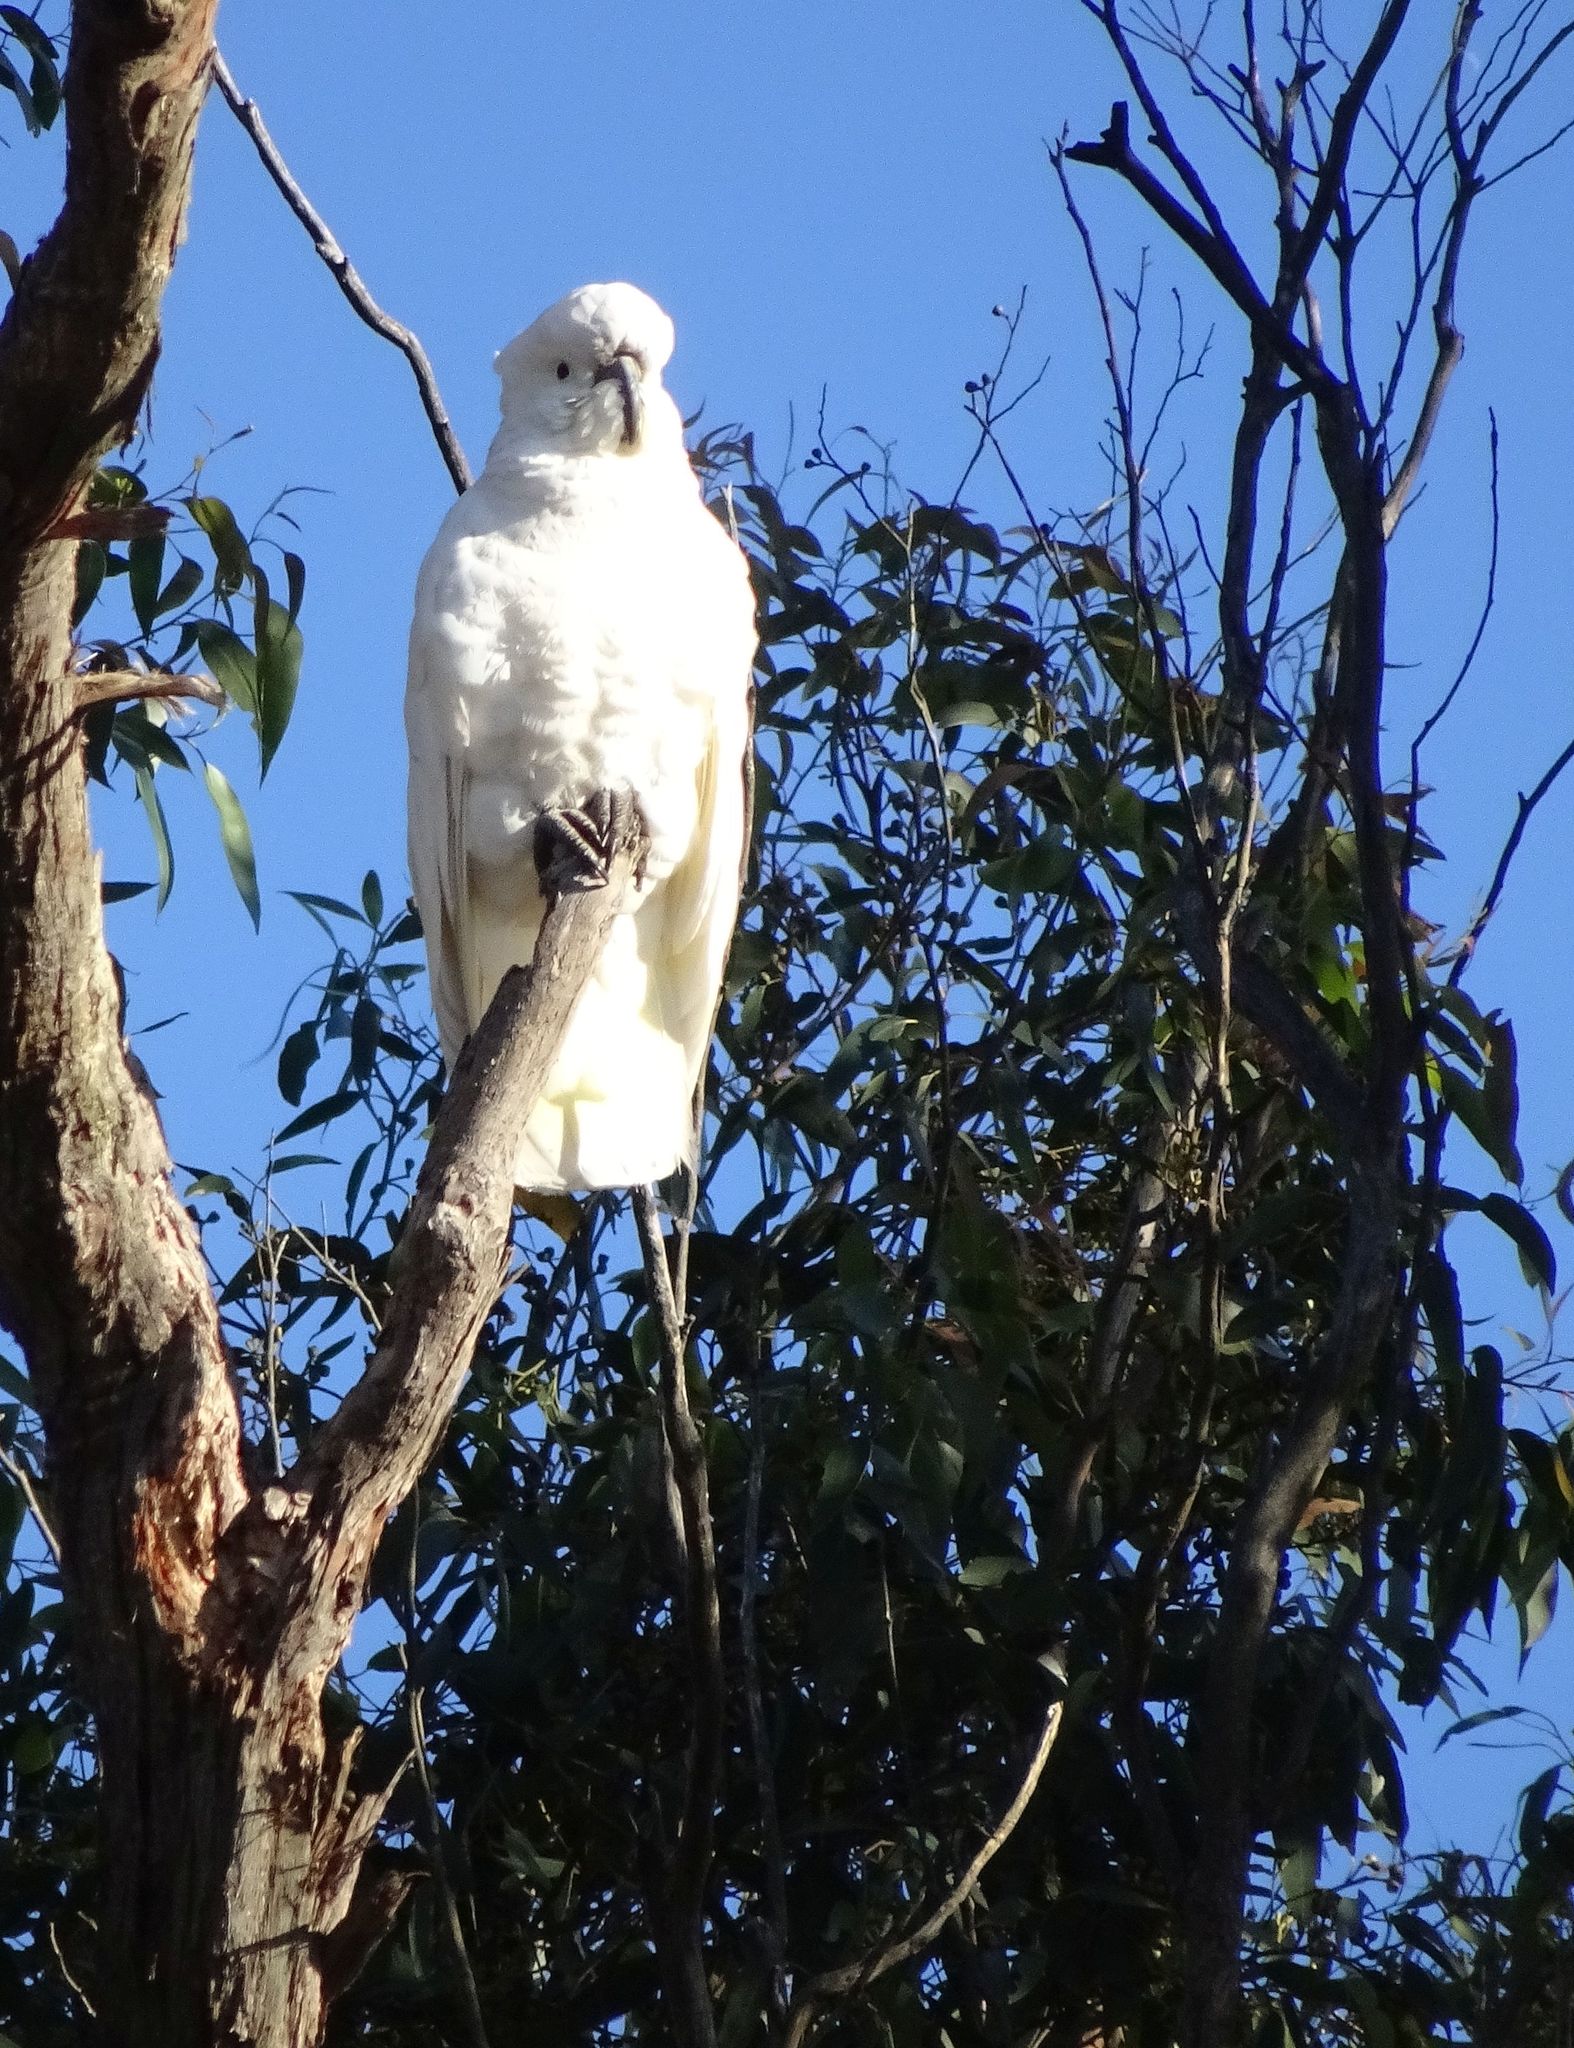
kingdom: Animalia
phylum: Chordata
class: Aves
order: Psittaciformes
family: Psittacidae
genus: Cacatua
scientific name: Cacatua galerita
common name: Sulphur-crested cockatoo
